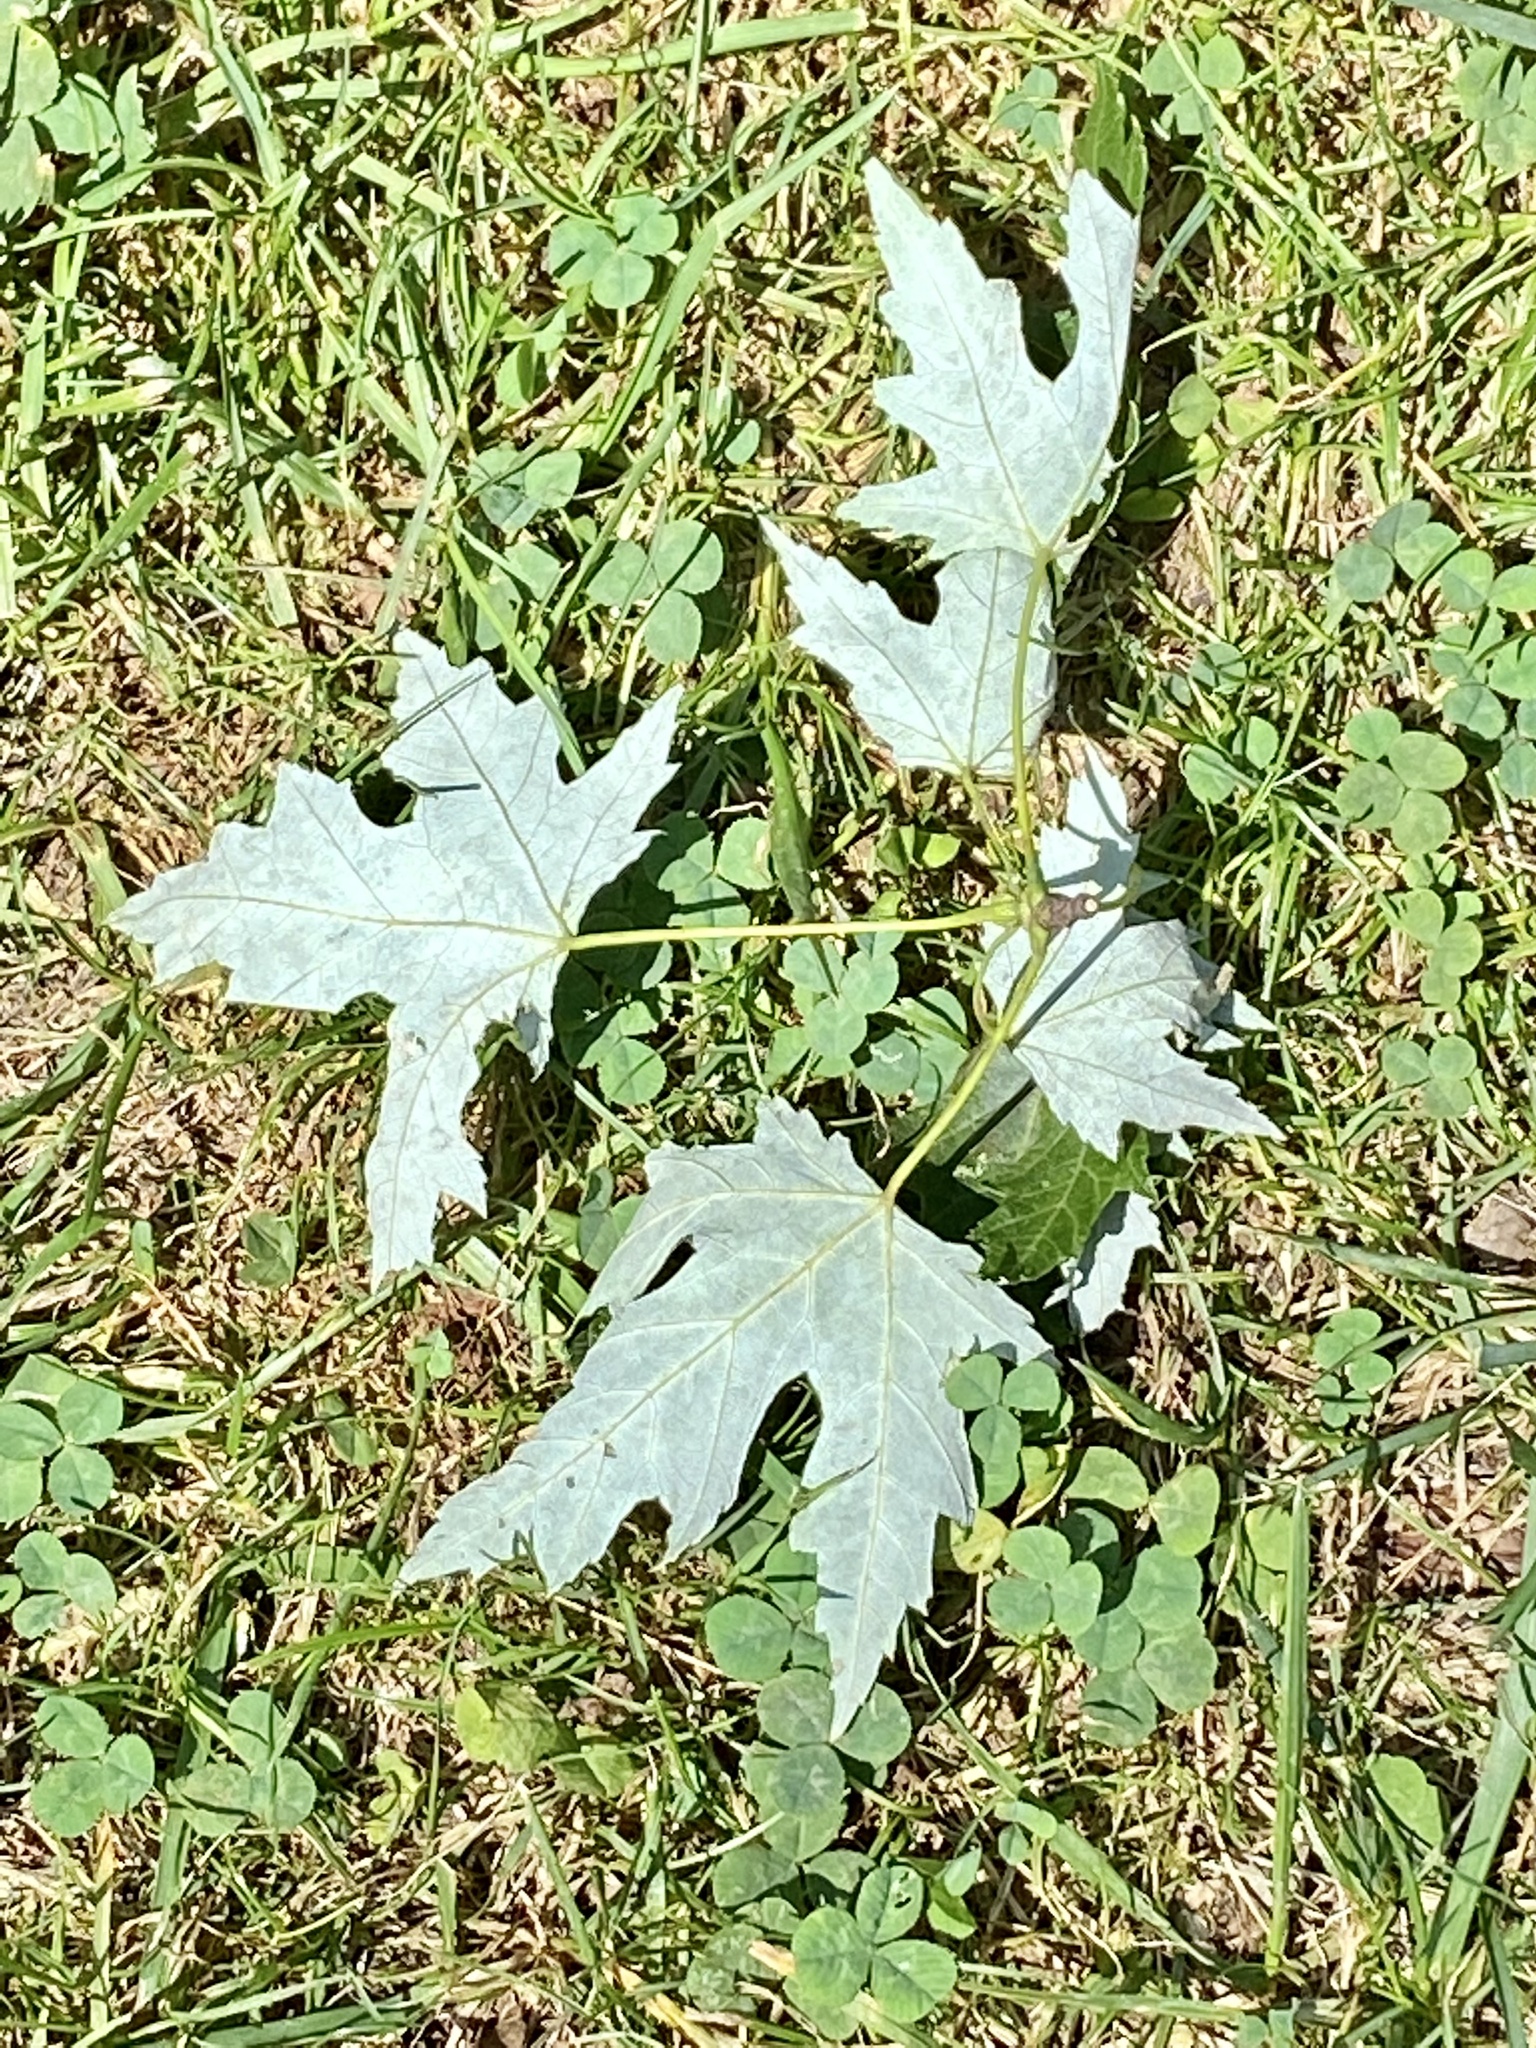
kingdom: Plantae
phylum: Tracheophyta
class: Magnoliopsida
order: Sapindales
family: Sapindaceae
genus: Acer
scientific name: Acer saccharinum
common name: Silver maple
